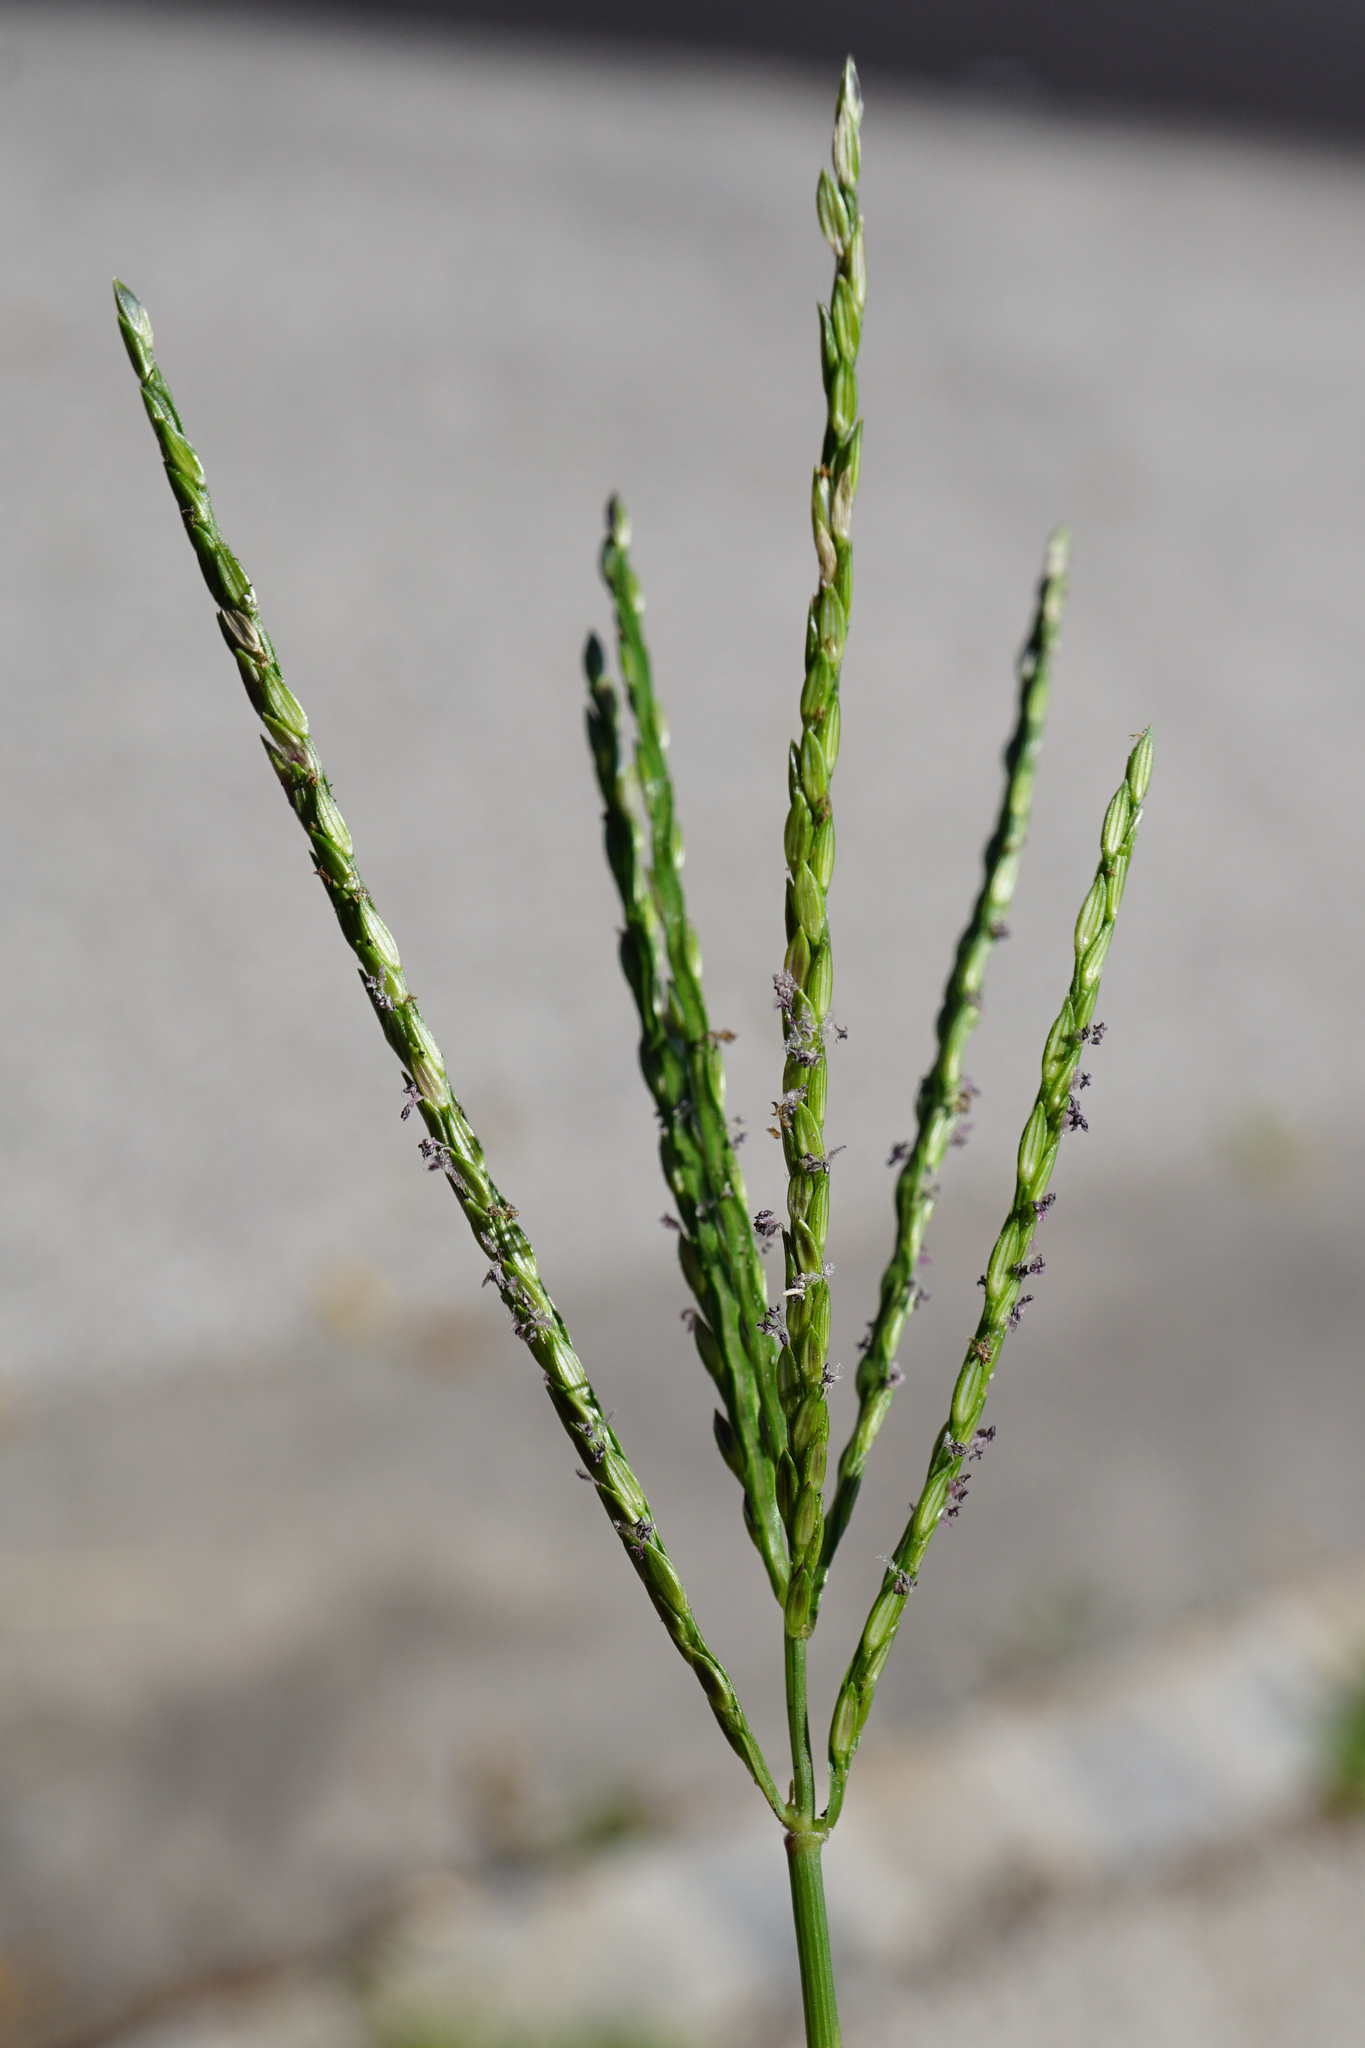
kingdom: Plantae
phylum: Tracheophyta
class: Liliopsida
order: Poales
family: Poaceae
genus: Digitaria
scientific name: Digitaria sanguinalis
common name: Hairy crabgrass
